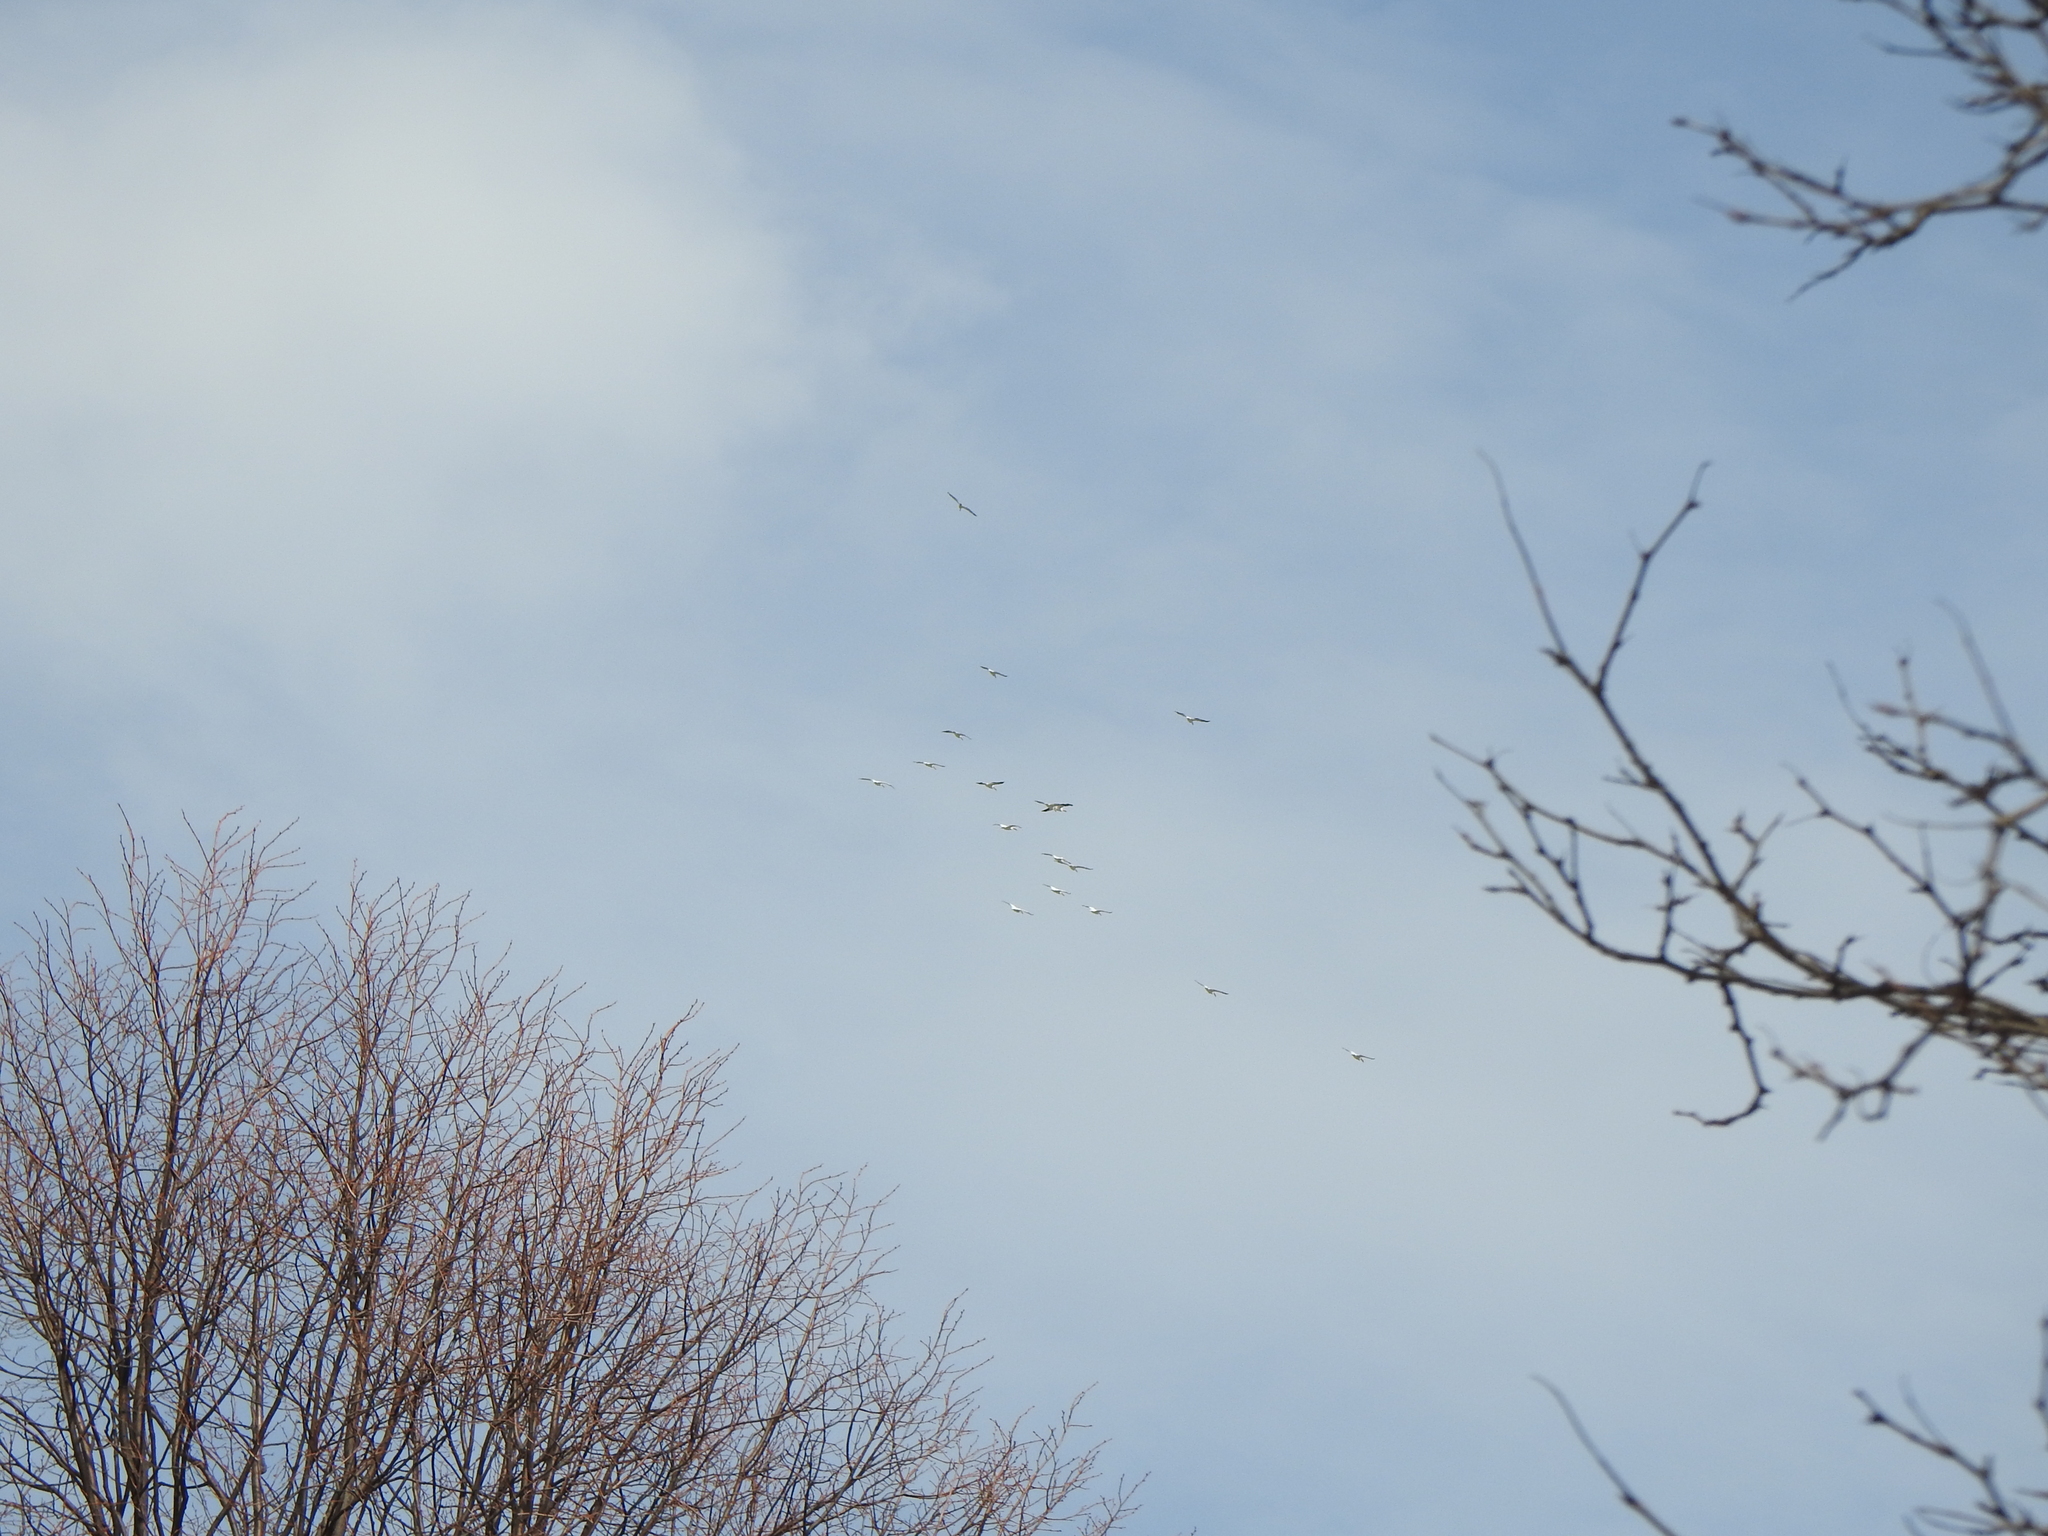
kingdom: Animalia
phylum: Chordata
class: Aves
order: Pelecaniformes
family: Pelecanidae
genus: Pelecanus
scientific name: Pelecanus erythrorhynchos
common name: American white pelican
